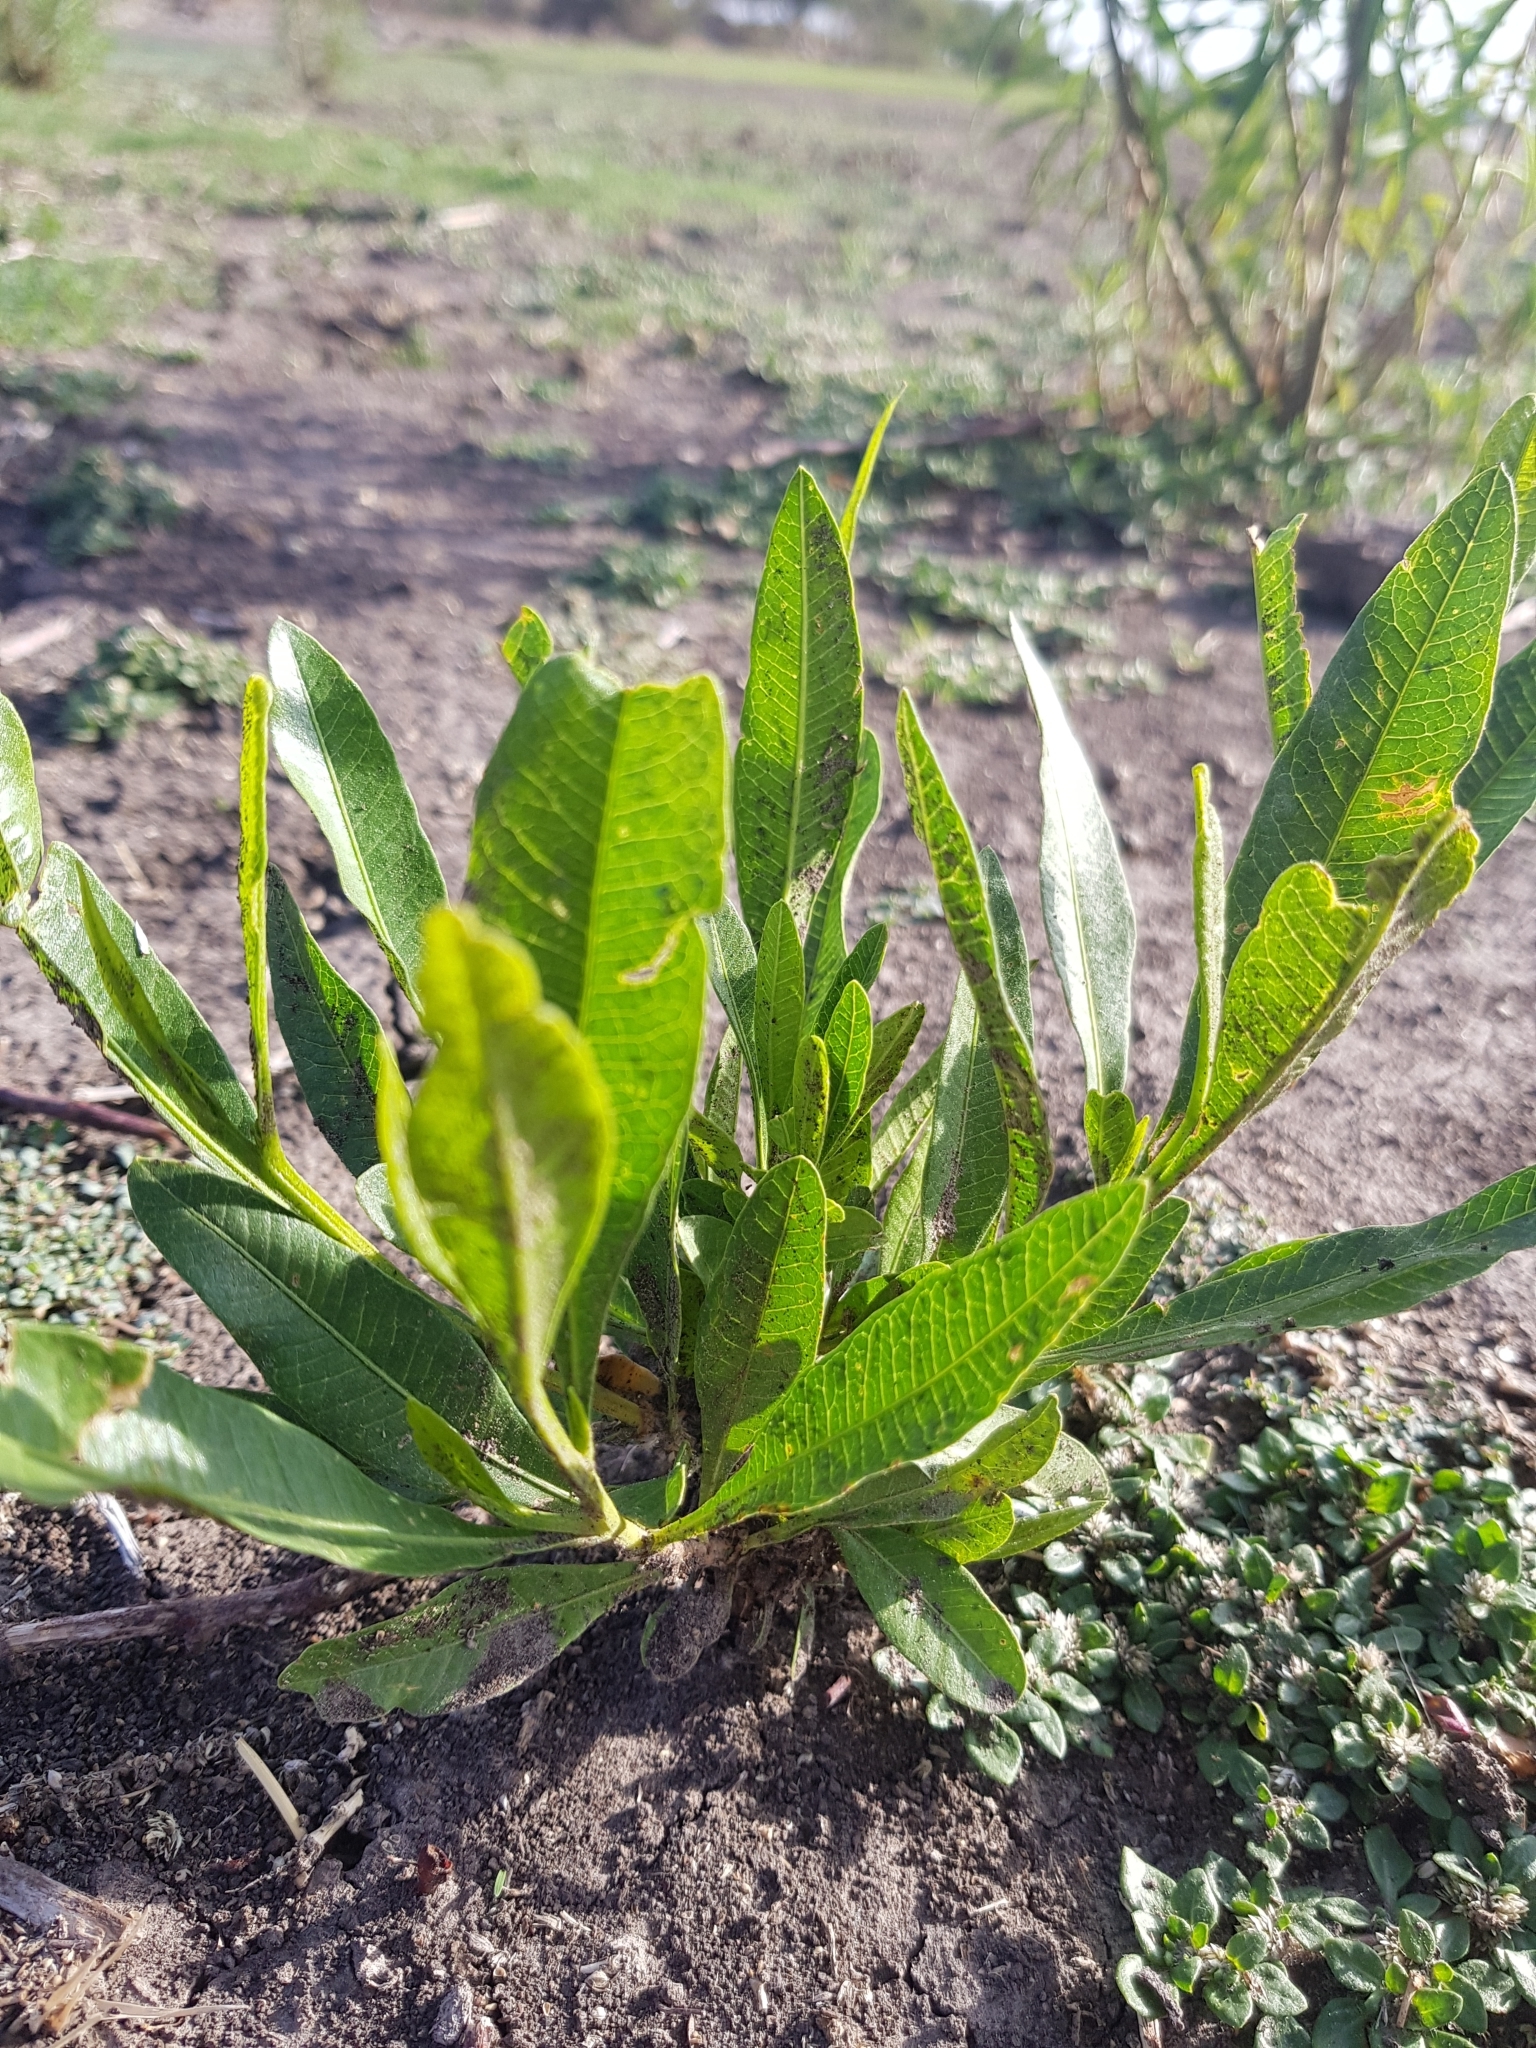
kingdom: Plantae
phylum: Tracheophyta
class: Magnoliopsida
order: Sapindales
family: Sapindaceae
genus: Dodonaea
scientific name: Dodonaea viscosa
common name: Hopbush
